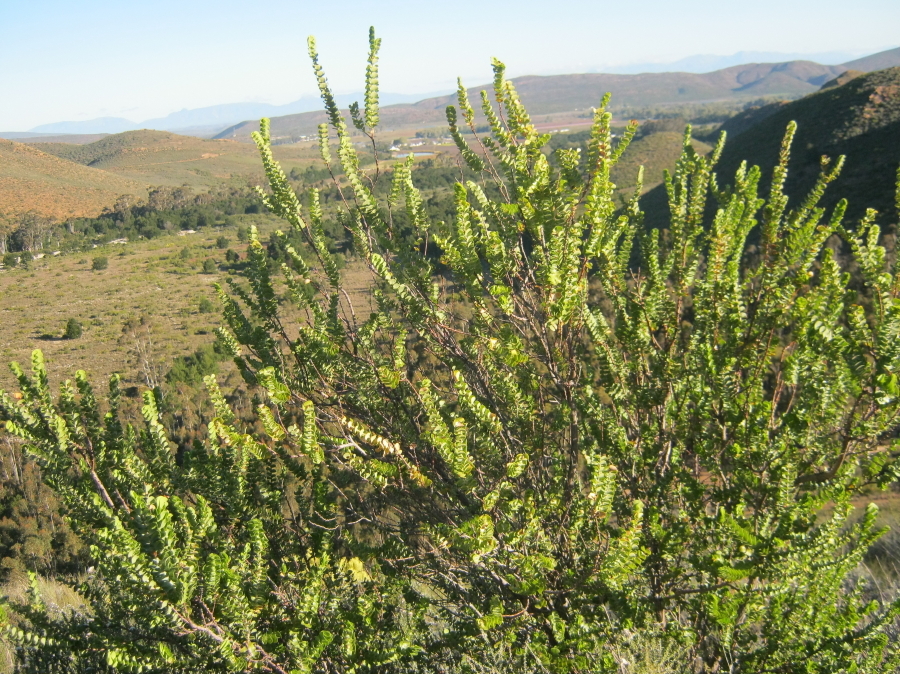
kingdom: Plantae
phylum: Tracheophyta
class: Magnoliopsida
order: Rosales
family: Rosaceae
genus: Cliffortia
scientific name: Cliffortia crenata
